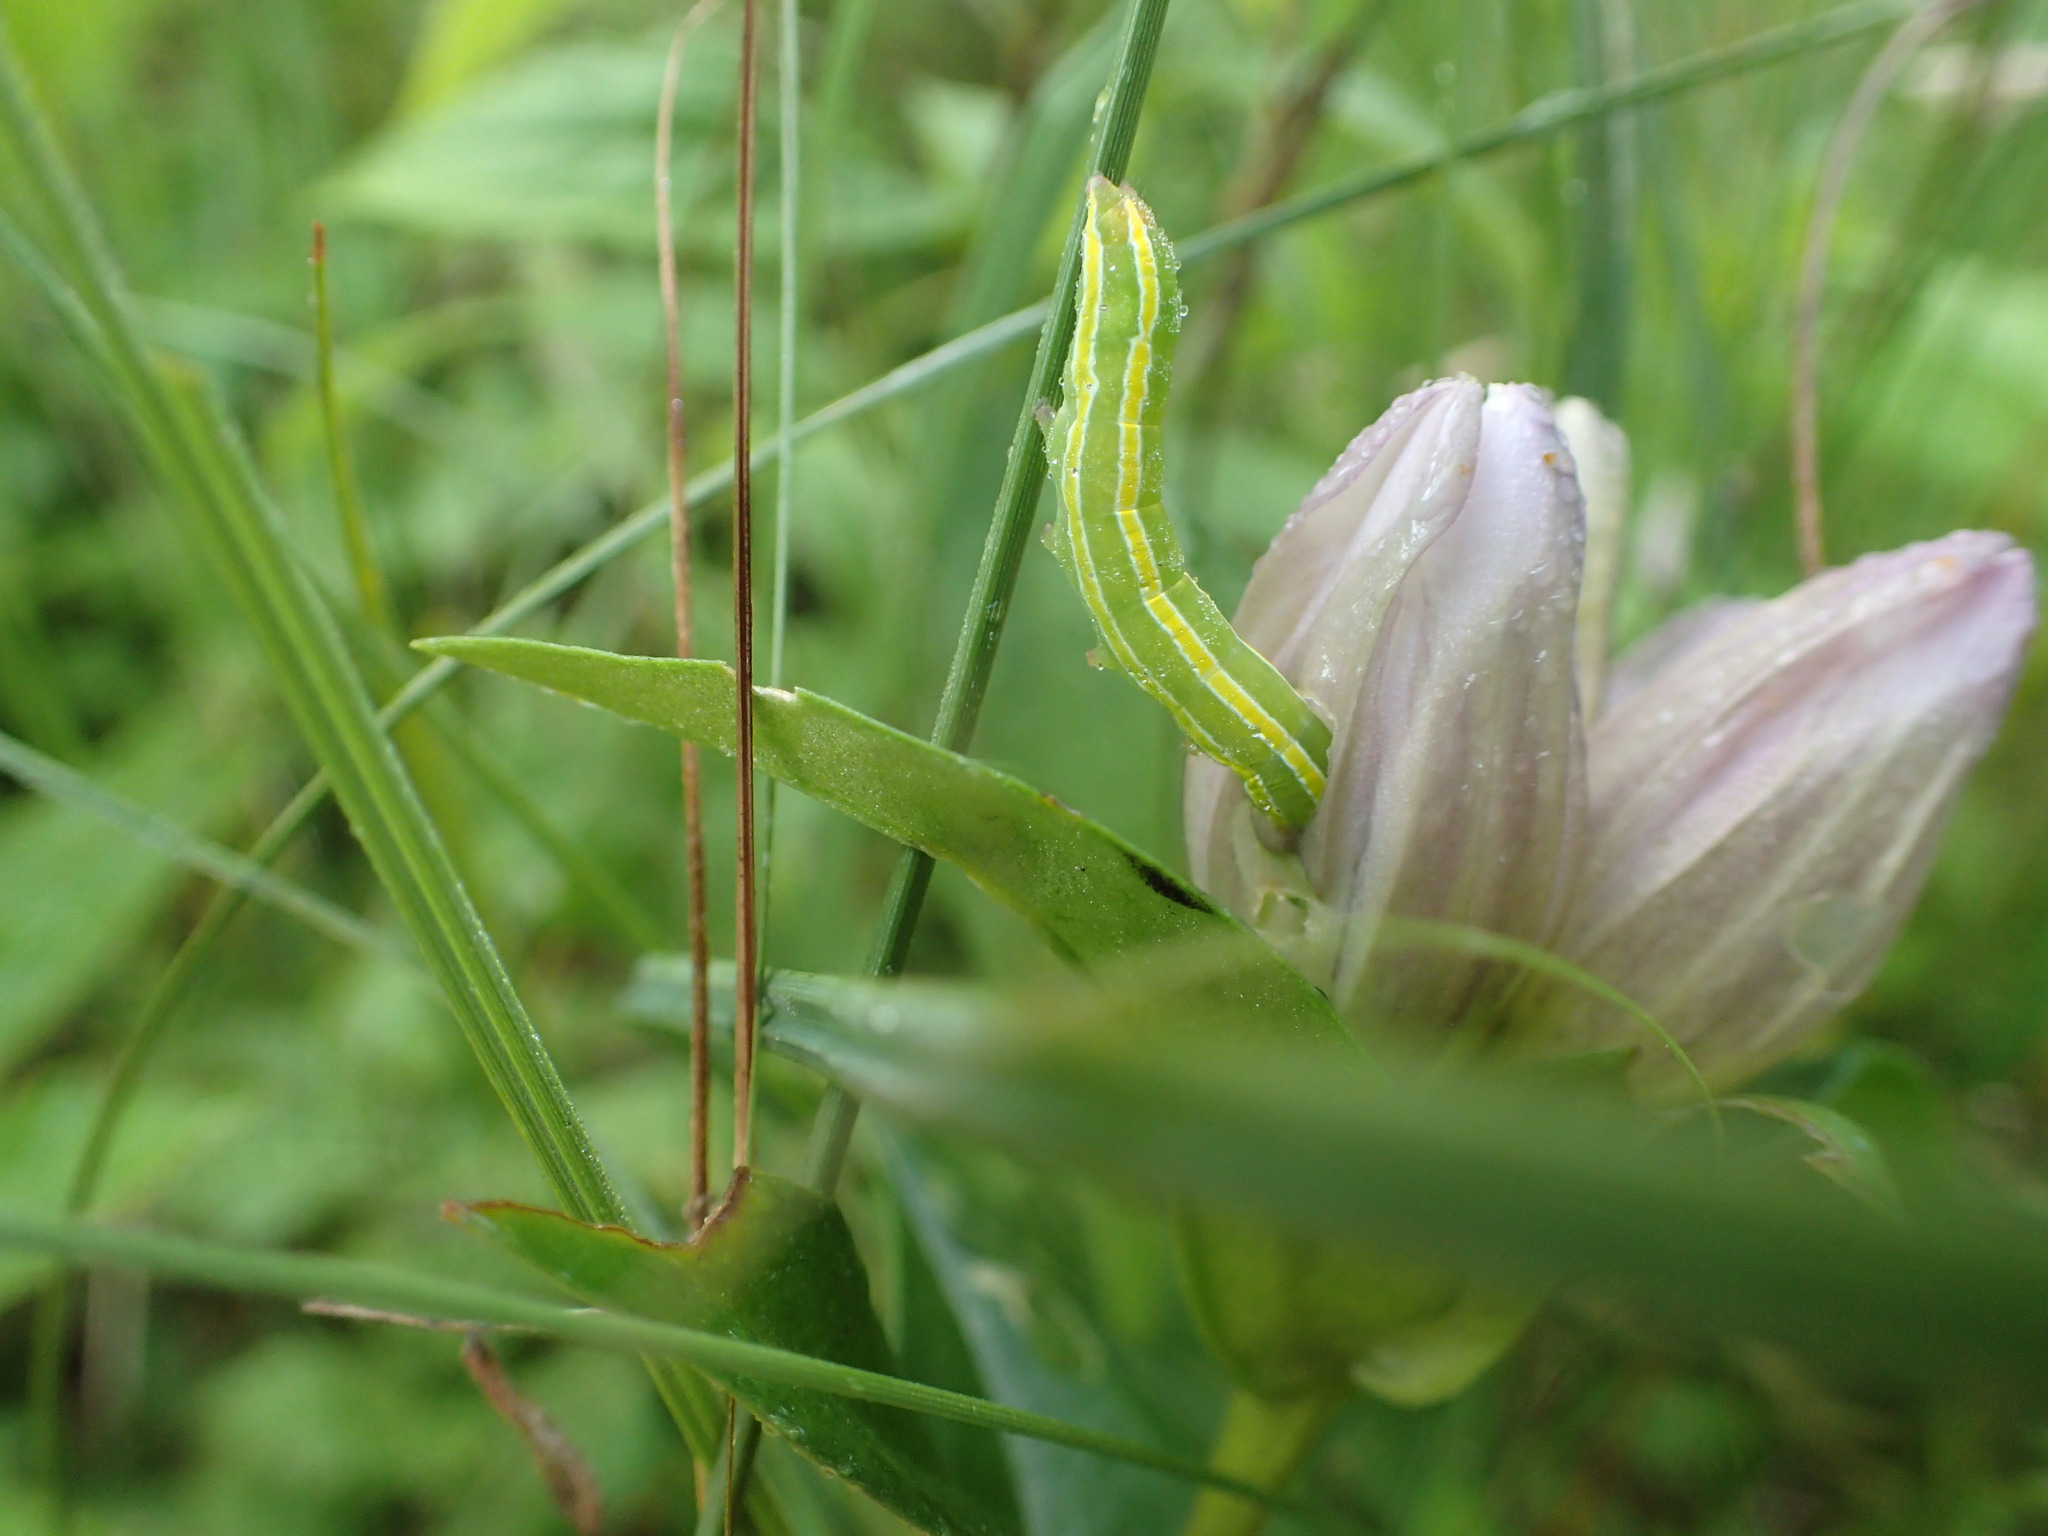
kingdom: Animalia
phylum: Arthropoda
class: Insecta
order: Lepidoptera
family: Noctuidae
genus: Melanchra
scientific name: Melanchra assimilis
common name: Black arches
